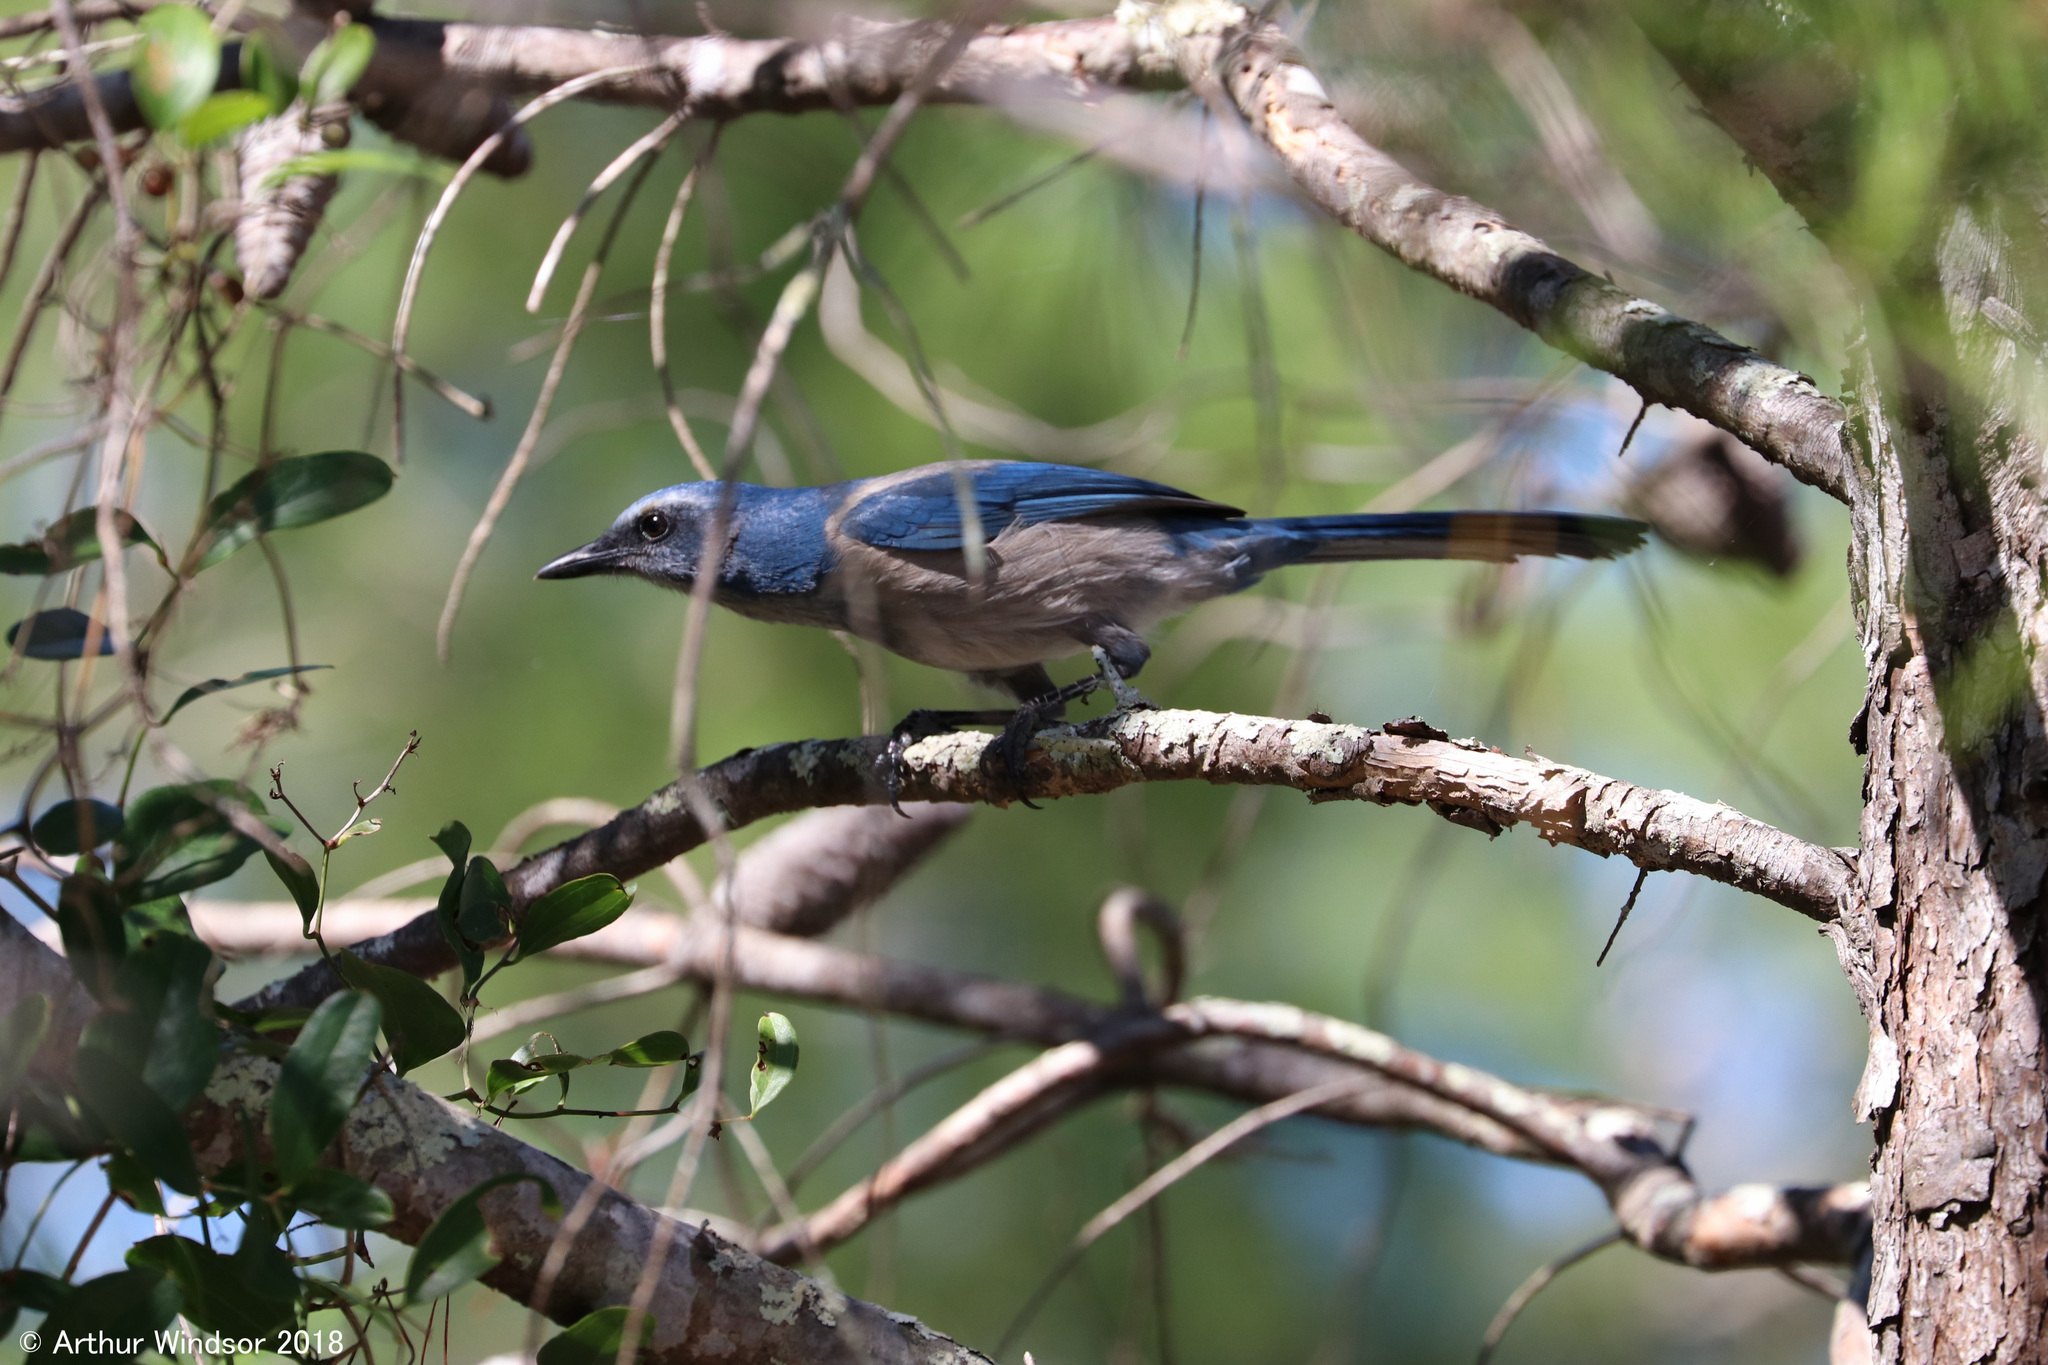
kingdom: Animalia
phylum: Chordata
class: Aves
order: Passeriformes
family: Corvidae
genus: Aphelocoma
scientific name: Aphelocoma coerulescens
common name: Florida scrub jay
